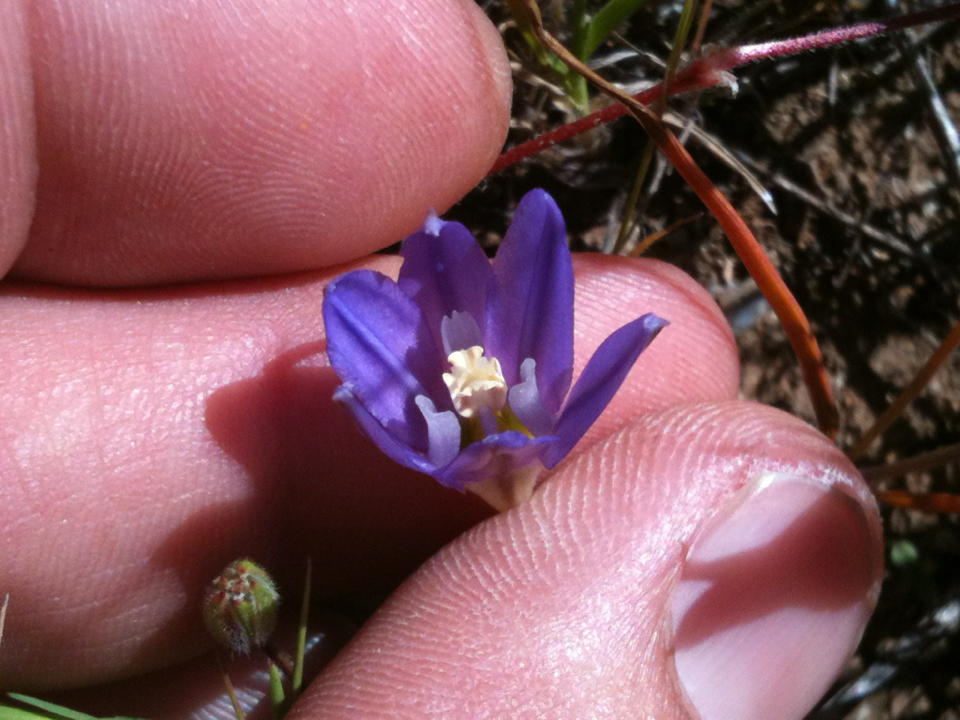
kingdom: Plantae
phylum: Tracheophyta
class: Liliopsida
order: Asparagales
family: Asparagaceae
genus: Brodiaea
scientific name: Brodiaea terrestris
